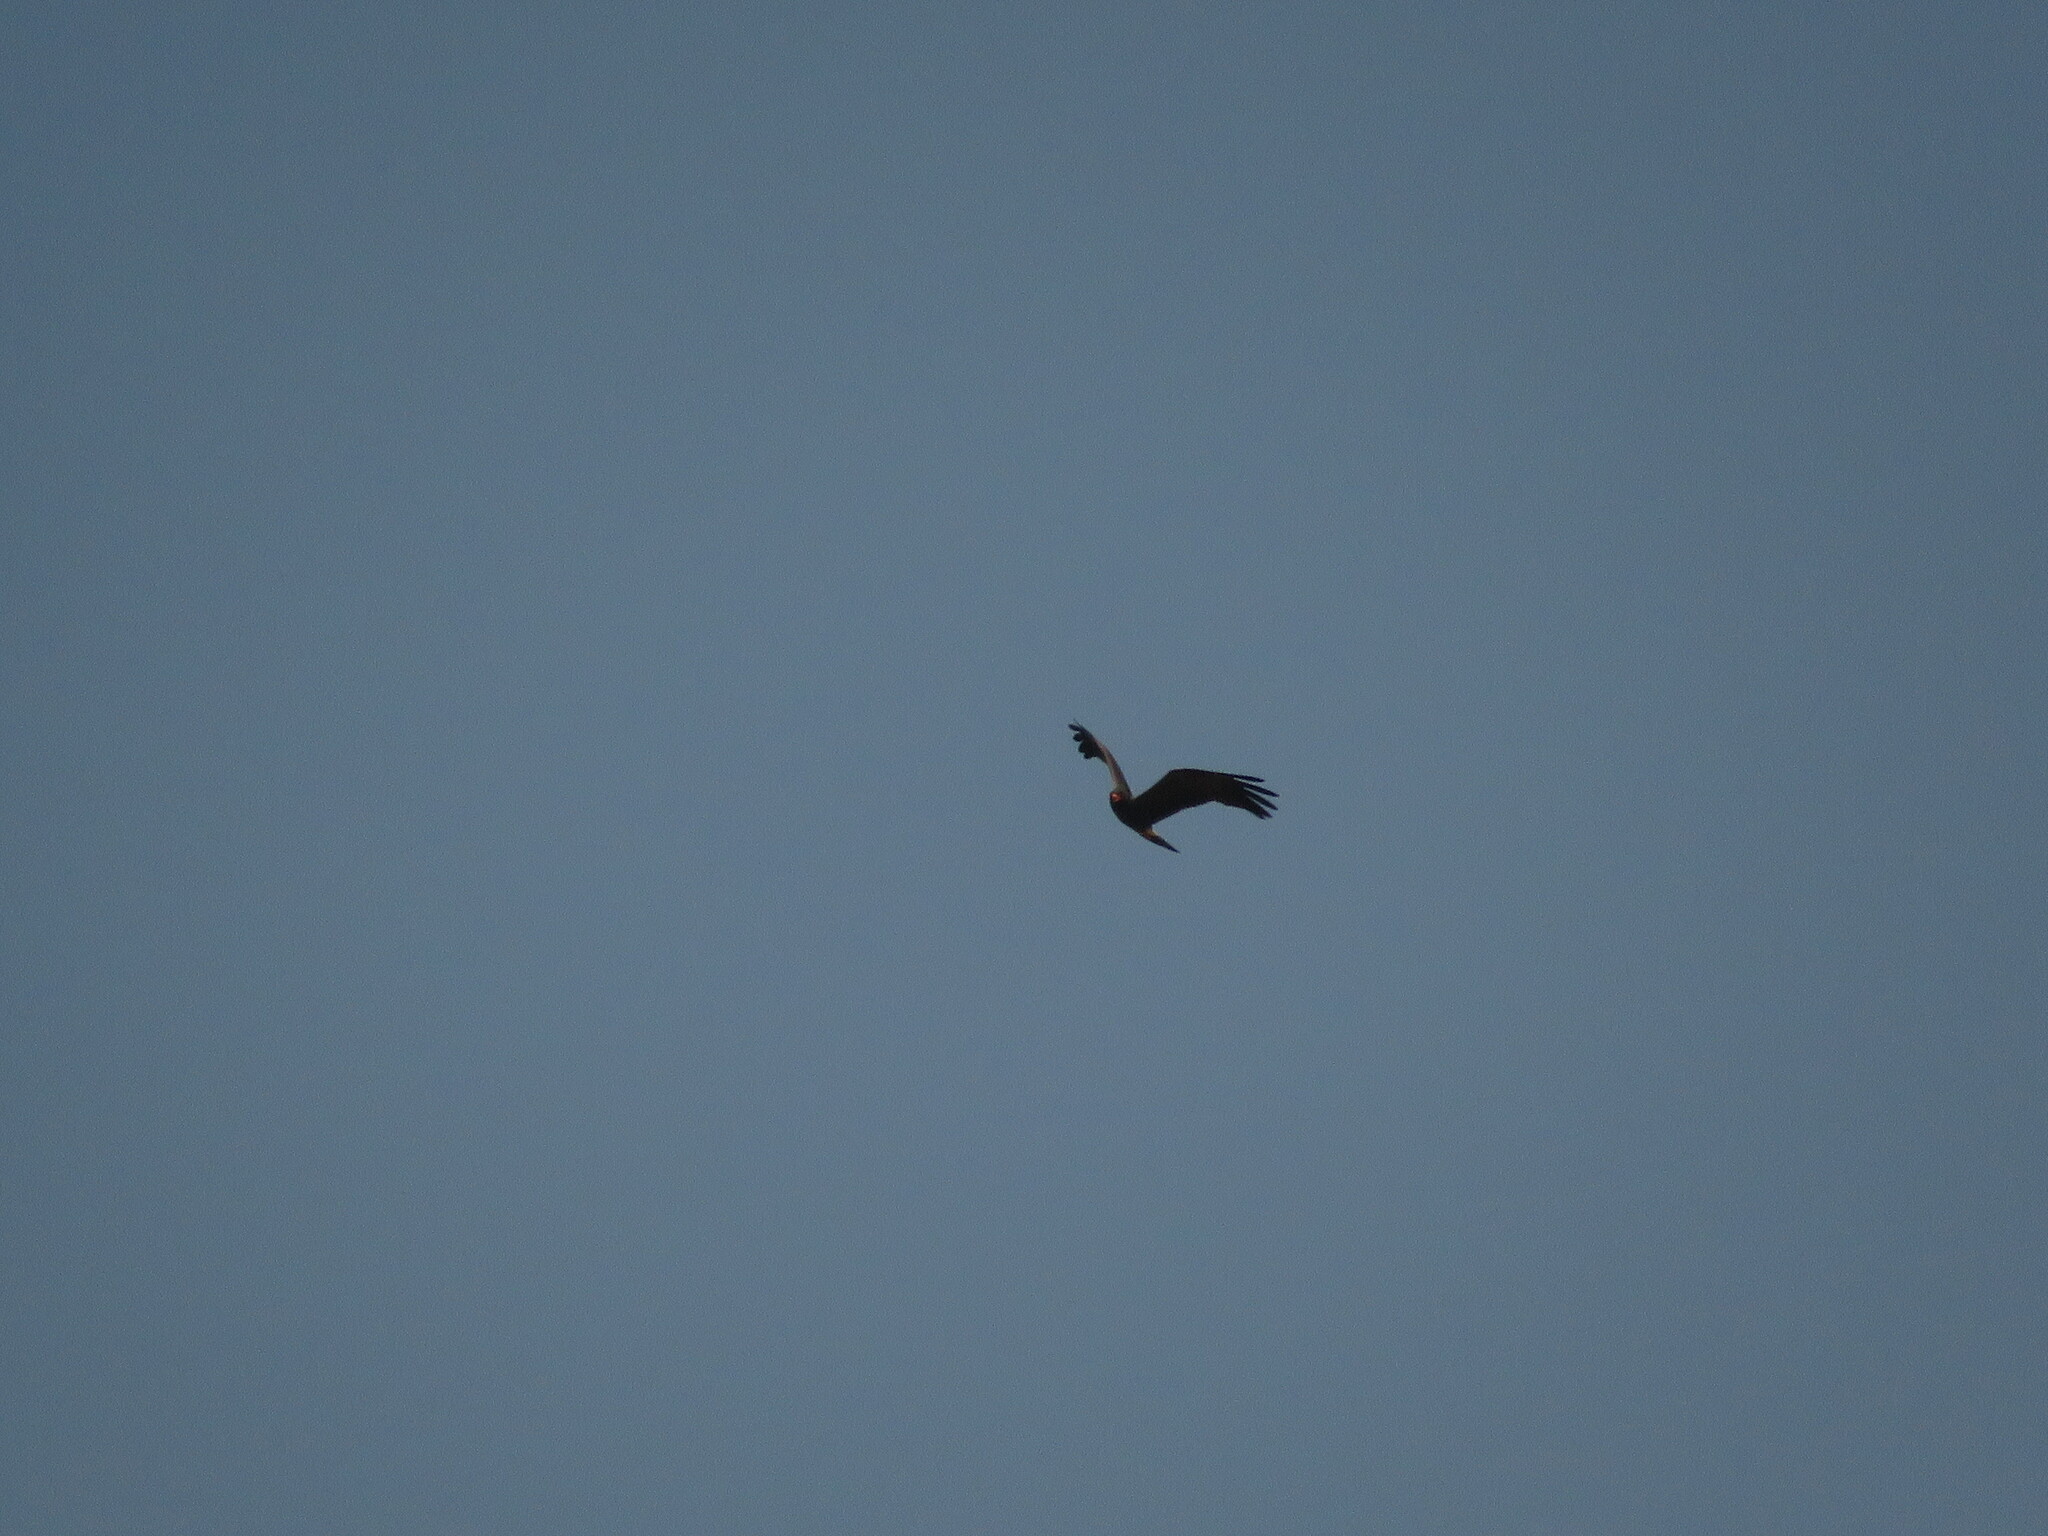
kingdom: Animalia
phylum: Chordata
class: Aves
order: Accipitriformes
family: Accipitridae
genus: Rostrhamus
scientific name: Rostrhamus sociabilis
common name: Snail kite
